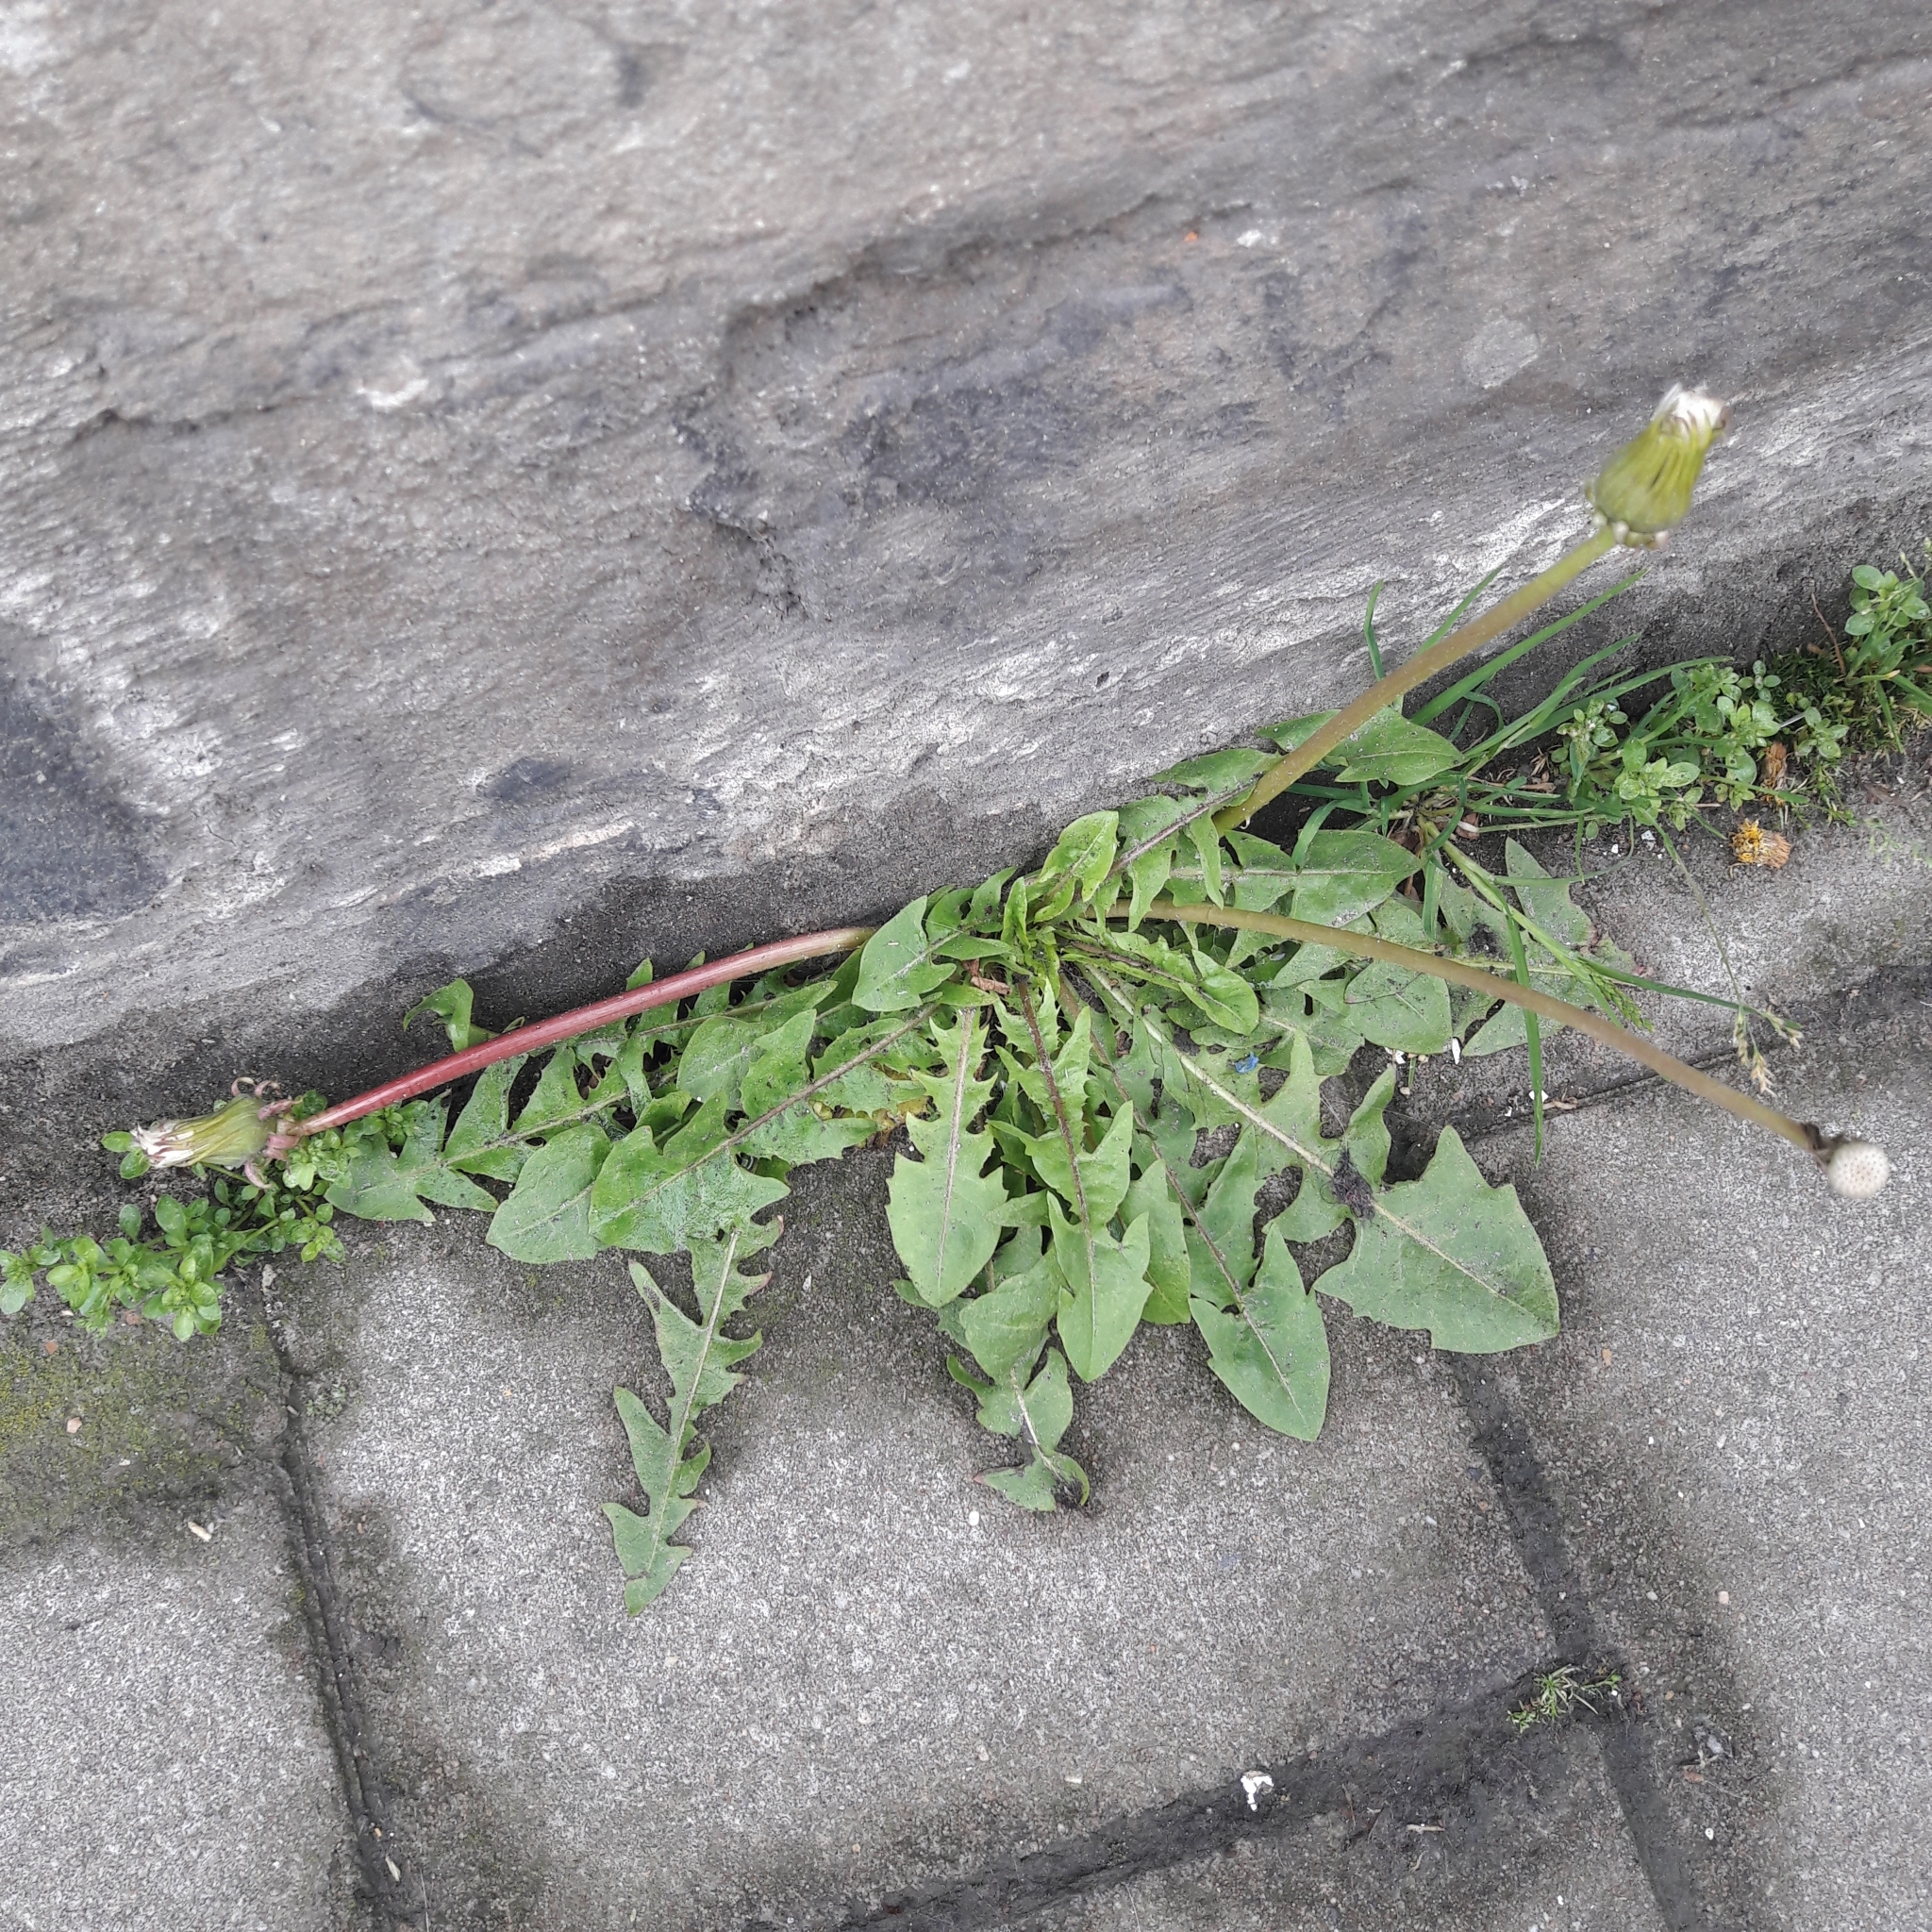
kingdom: Plantae
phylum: Tracheophyta
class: Magnoliopsida
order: Asterales
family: Asteraceae
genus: Taraxacum
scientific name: Taraxacum officinale
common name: Common dandelion
